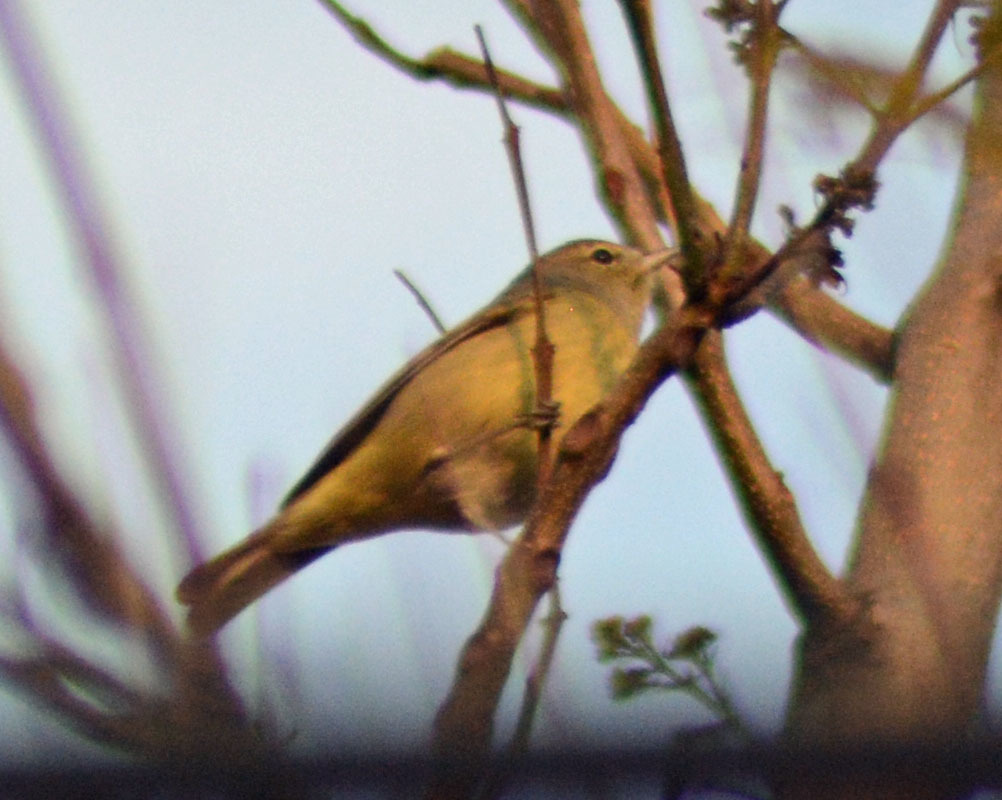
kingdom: Animalia
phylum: Chordata
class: Aves
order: Passeriformes
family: Parulidae
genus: Leiothlypis
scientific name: Leiothlypis celata
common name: Orange-crowned warbler
